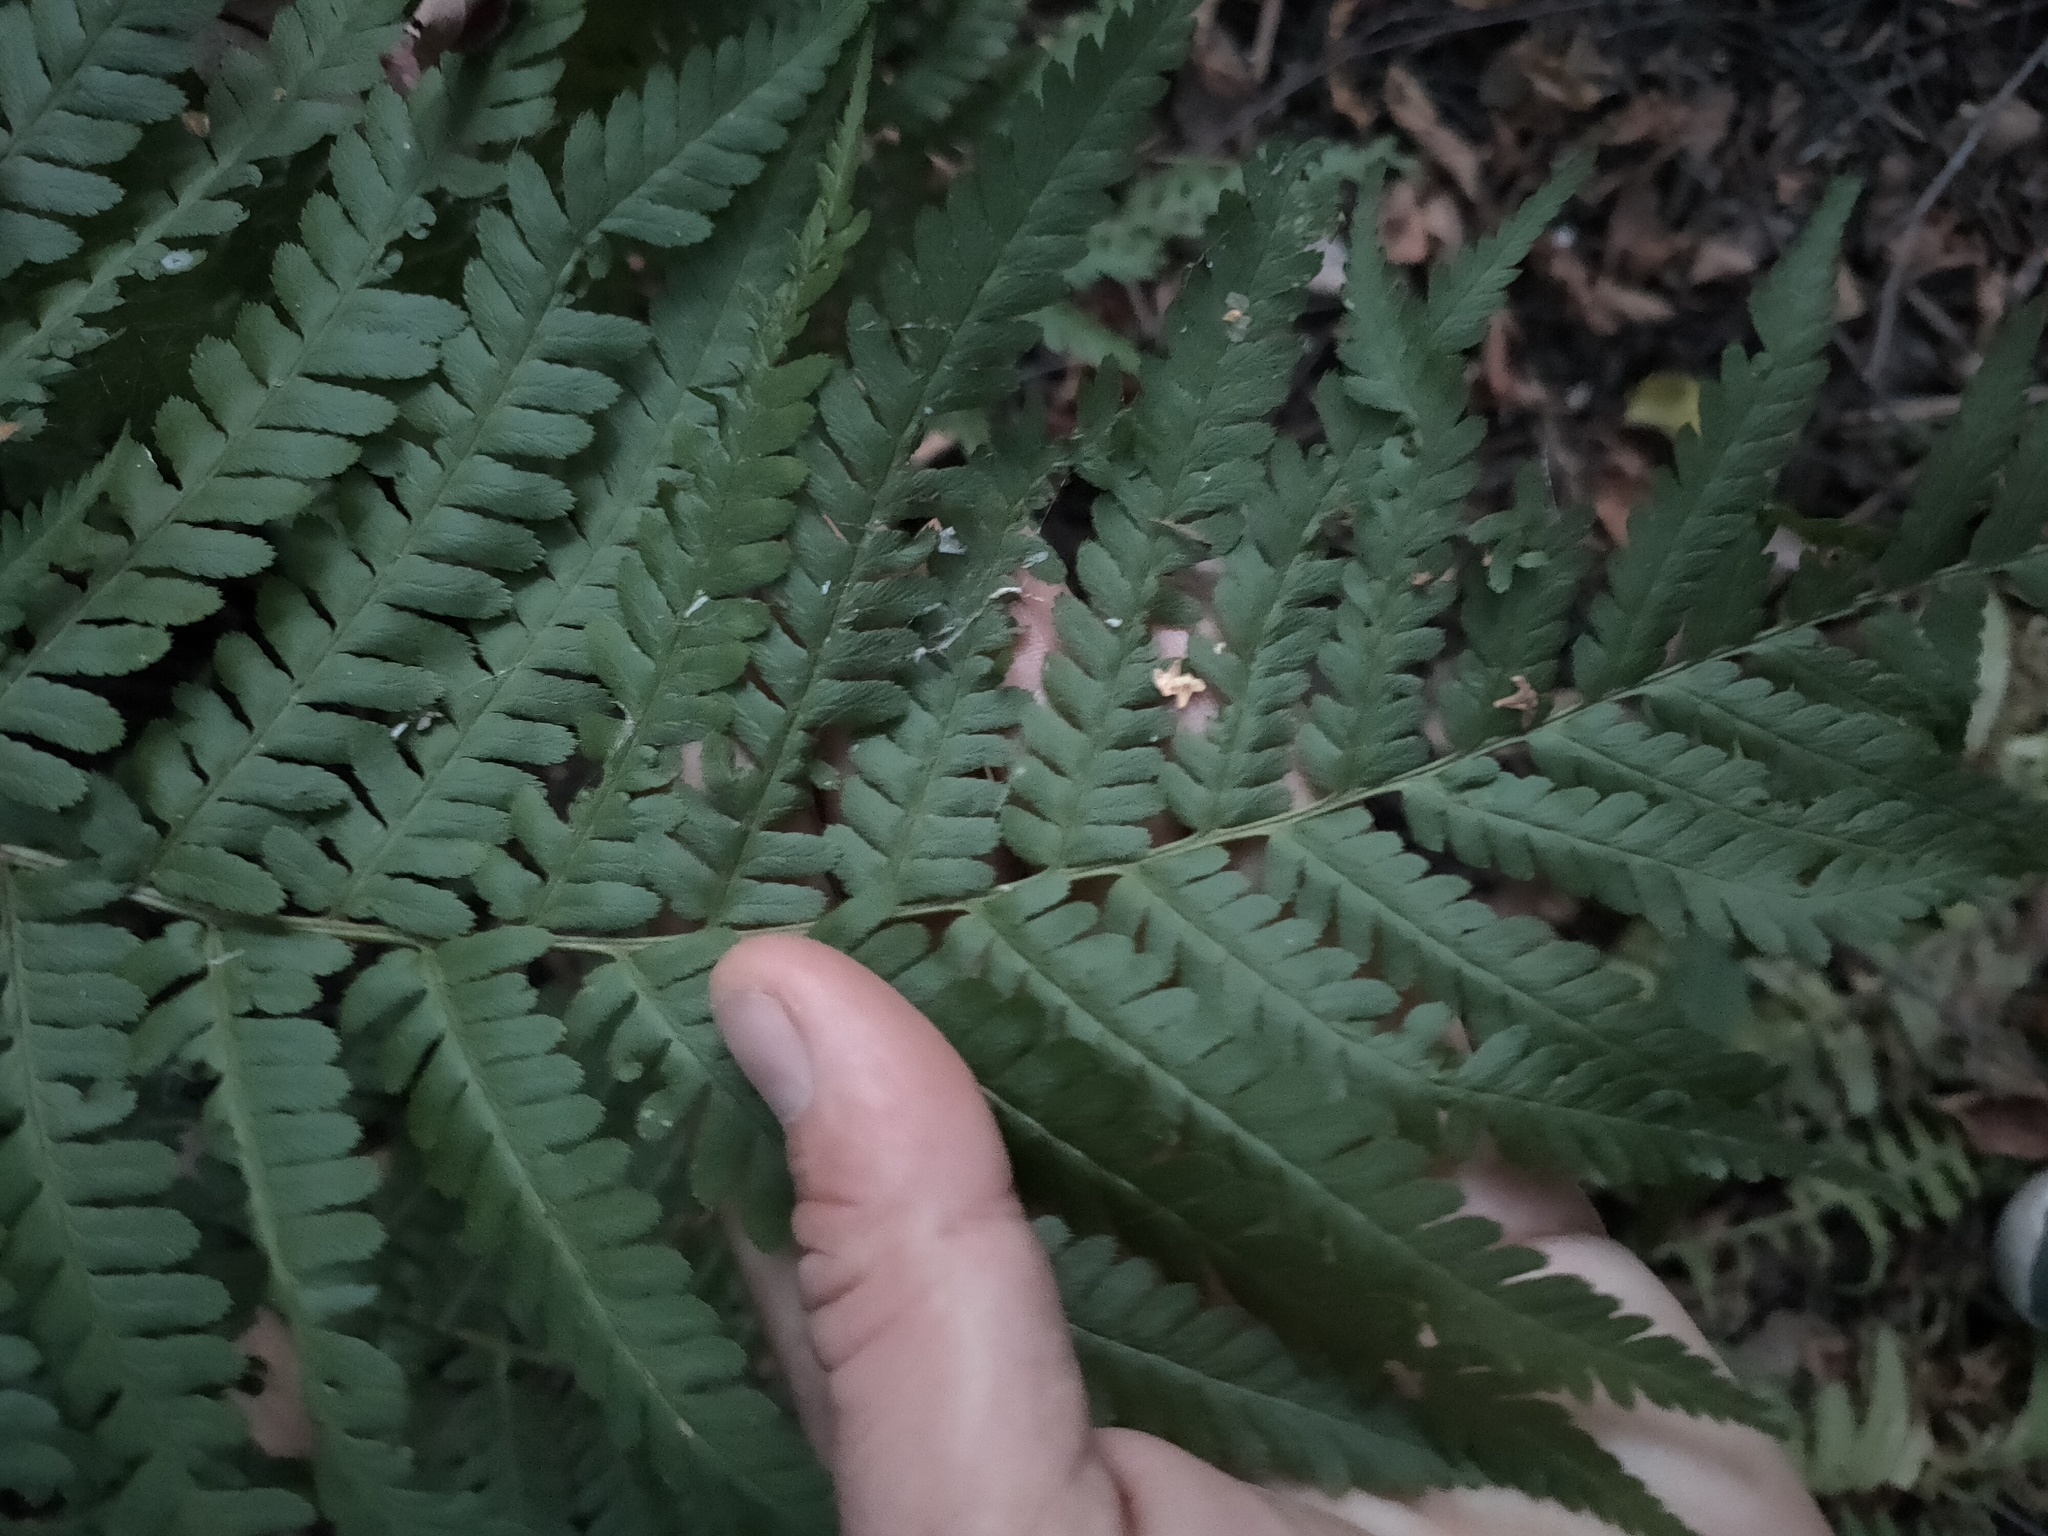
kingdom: Plantae
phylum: Tracheophyta
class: Polypodiopsida
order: Polypodiales
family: Dryopteridaceae
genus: Dryopteris
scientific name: Dryopteris filix-mas
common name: Male fern
